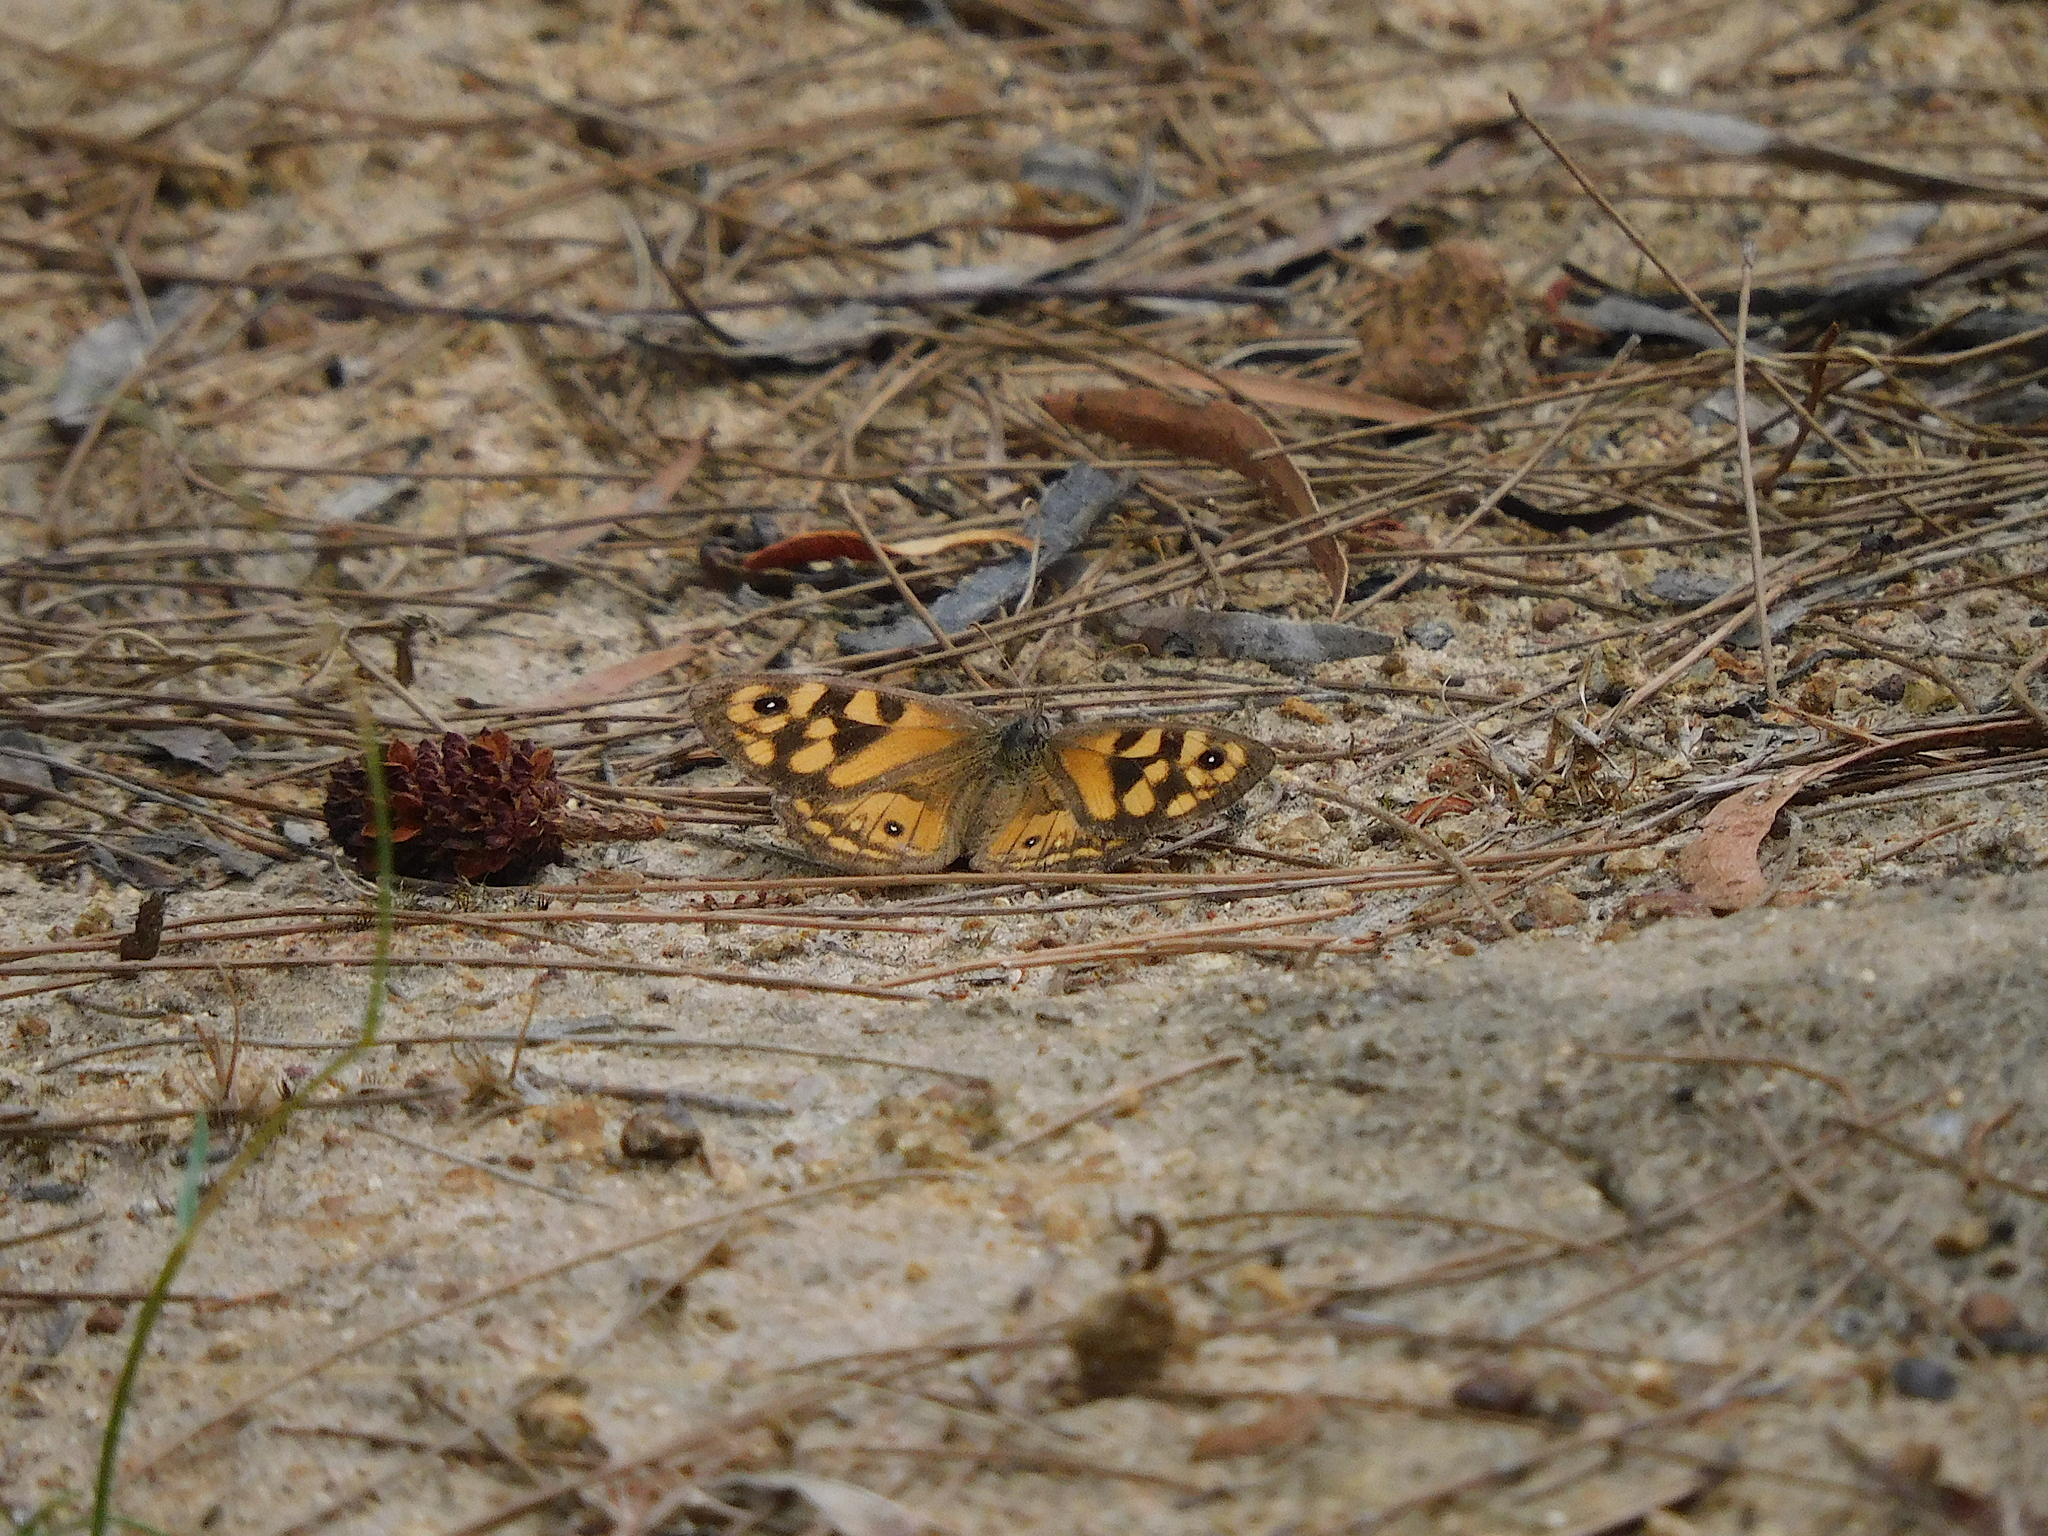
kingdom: Animalia
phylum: Arthropoda
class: Insecta
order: Lepidoptera
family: Nymphalidae
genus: Geitoneura
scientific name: Geitoneura klugii
